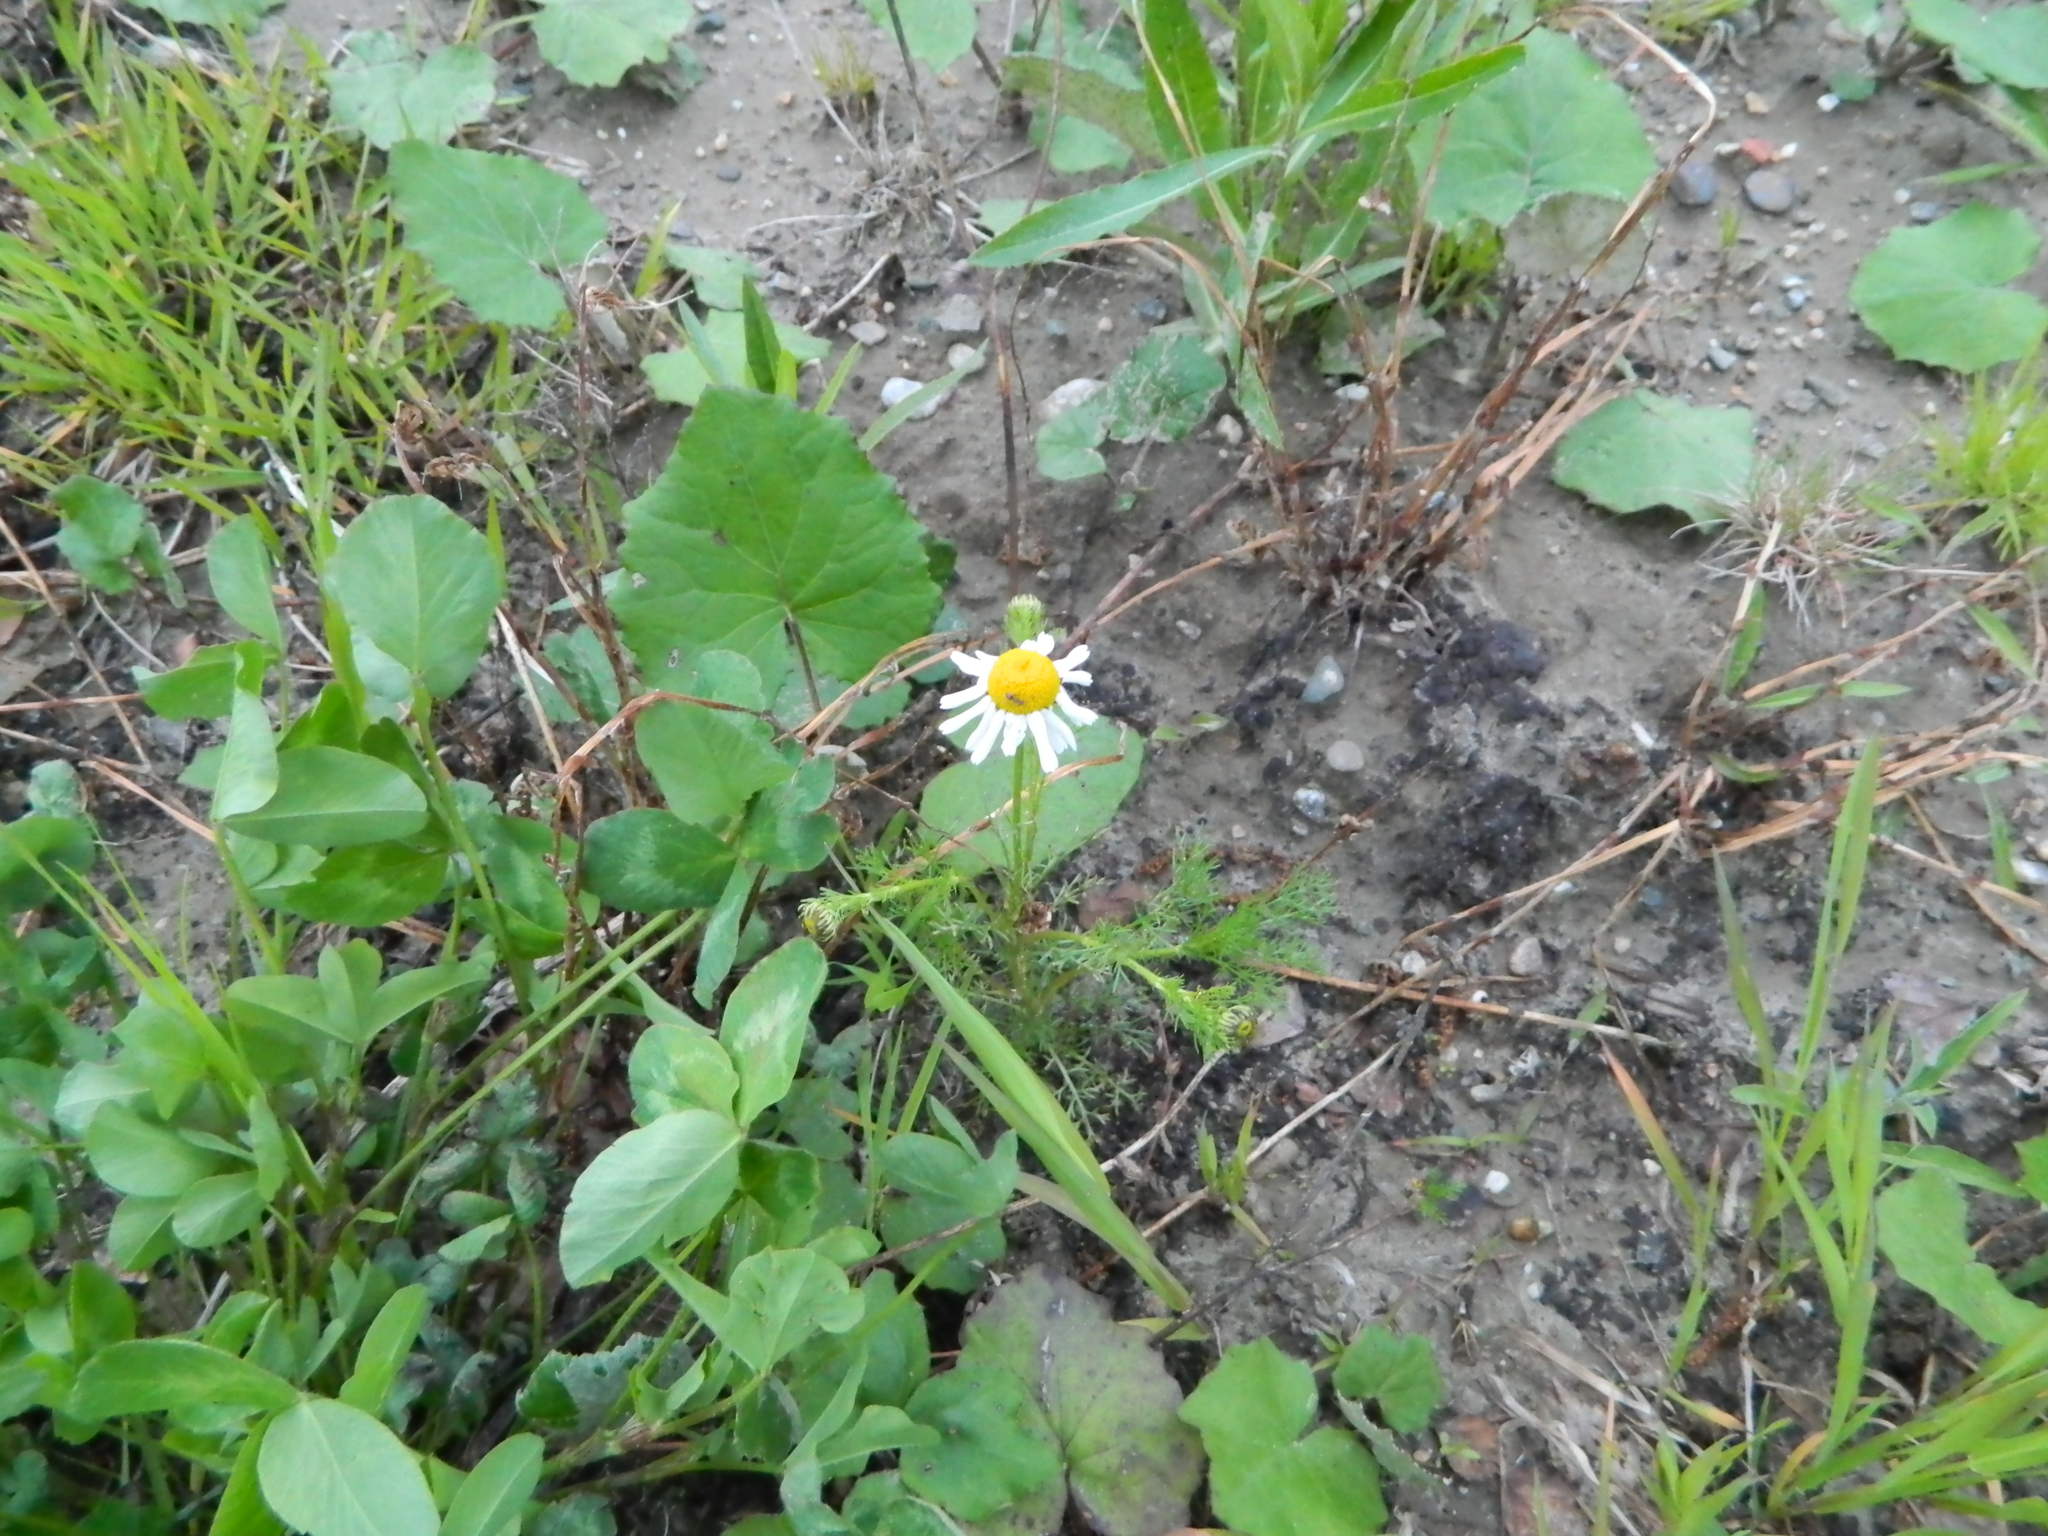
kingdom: Plantae
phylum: Tracheophyta
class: Magnoliopsida
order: Asterales
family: Asteraceae
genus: Tripleurospermum
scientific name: Tripleurospermum inodorum
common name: Scentless mayweed
